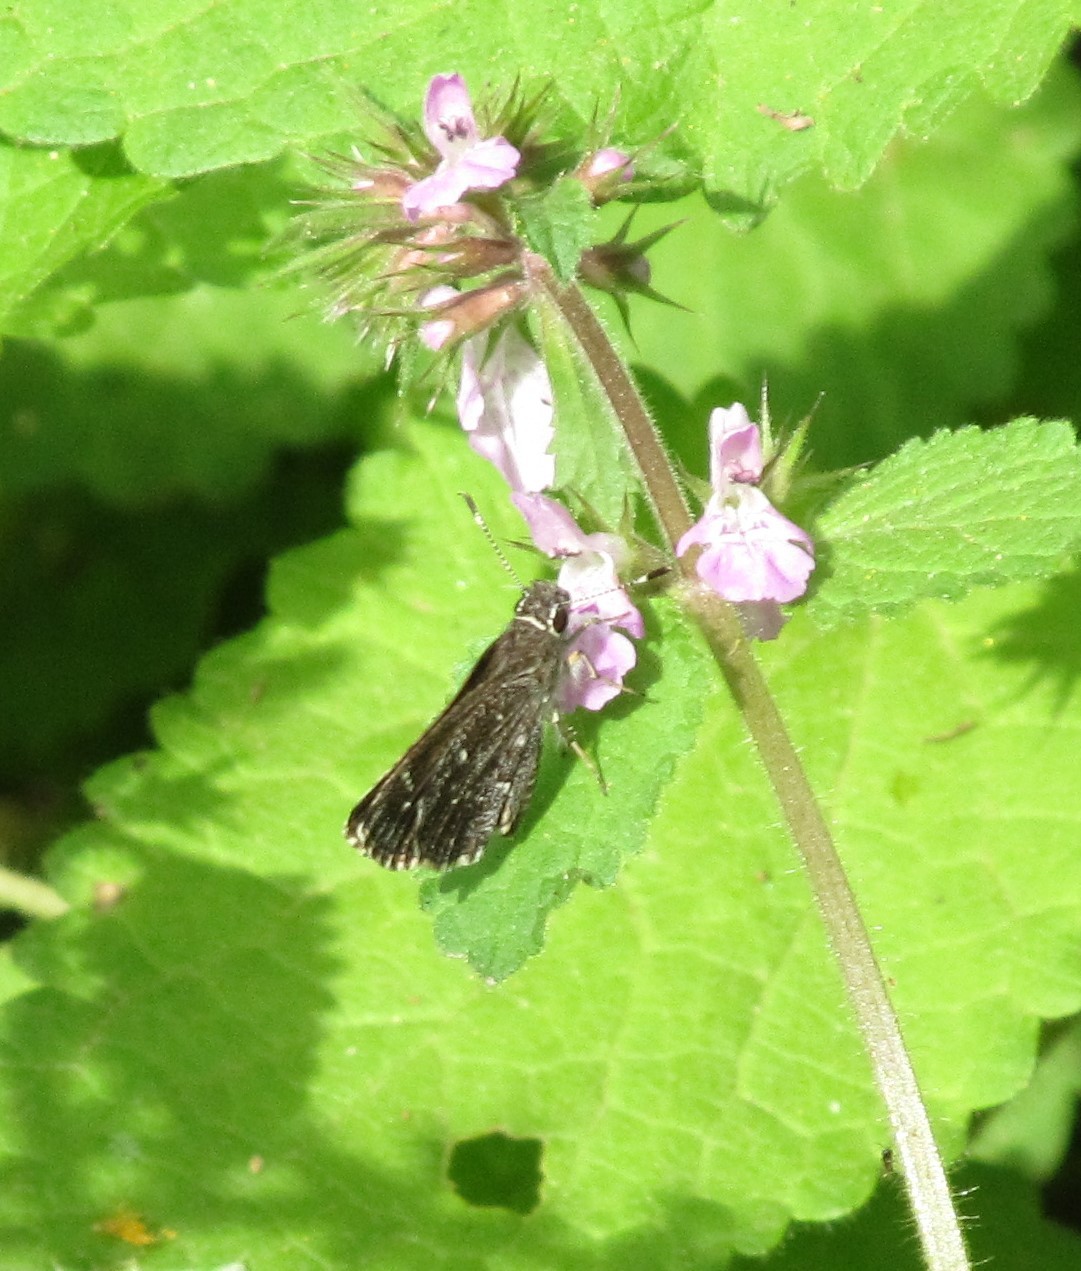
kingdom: Animalia
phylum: Arthropoda
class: Insecta
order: Lepidoptera
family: Hesperiidae
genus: Mastor
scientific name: Mastor celia
